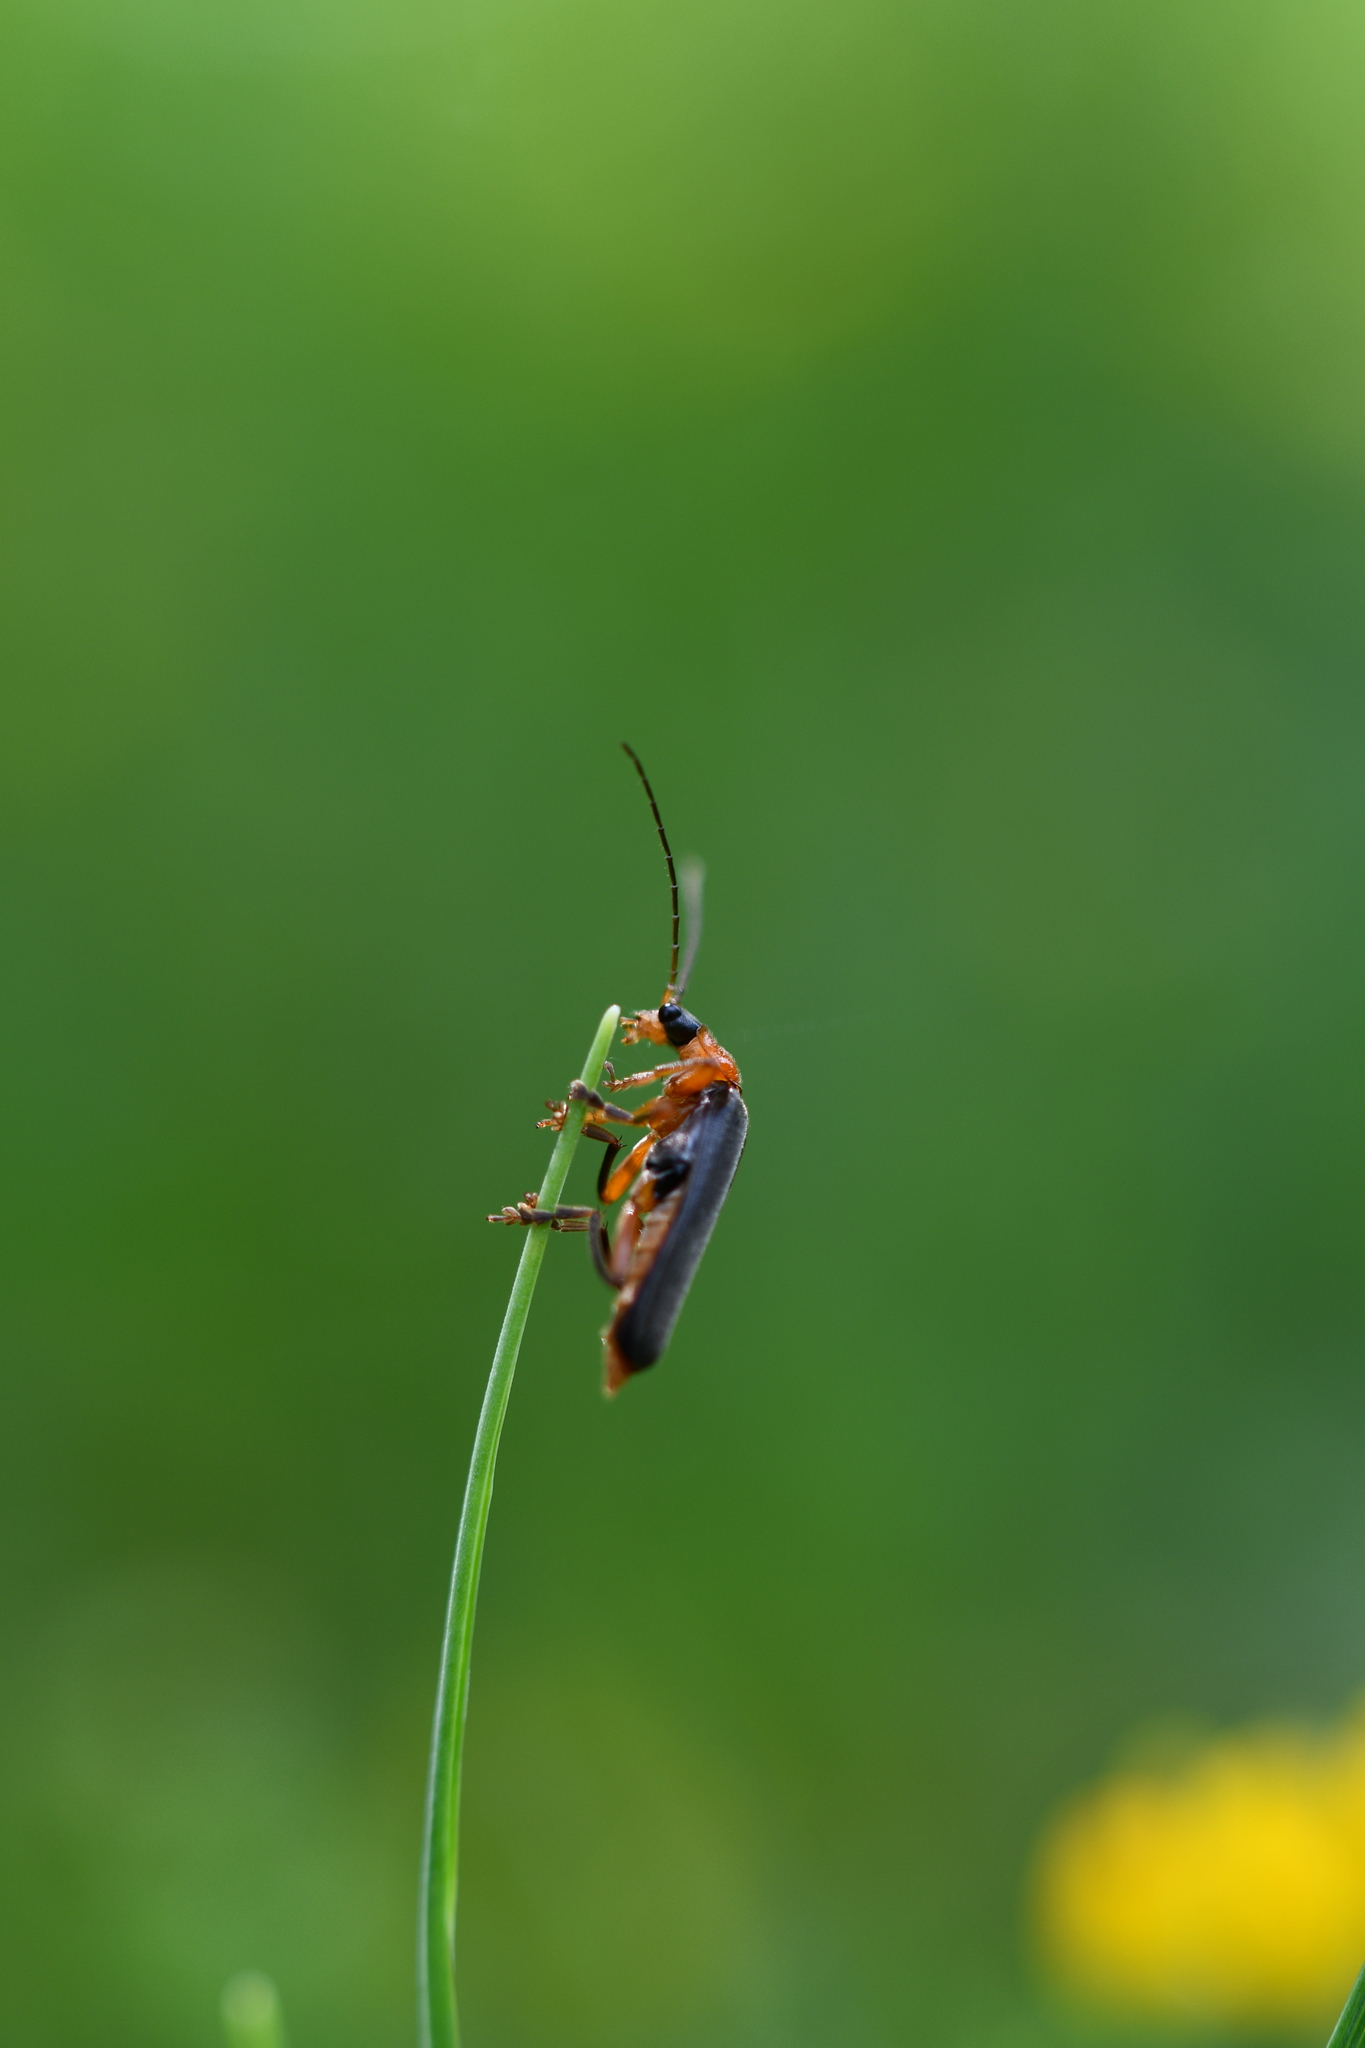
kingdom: Animalia
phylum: Arthropoda
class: Insecta
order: Coleoptera
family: Cantharidae
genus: Cantharis
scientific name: Cantharis pellucida
